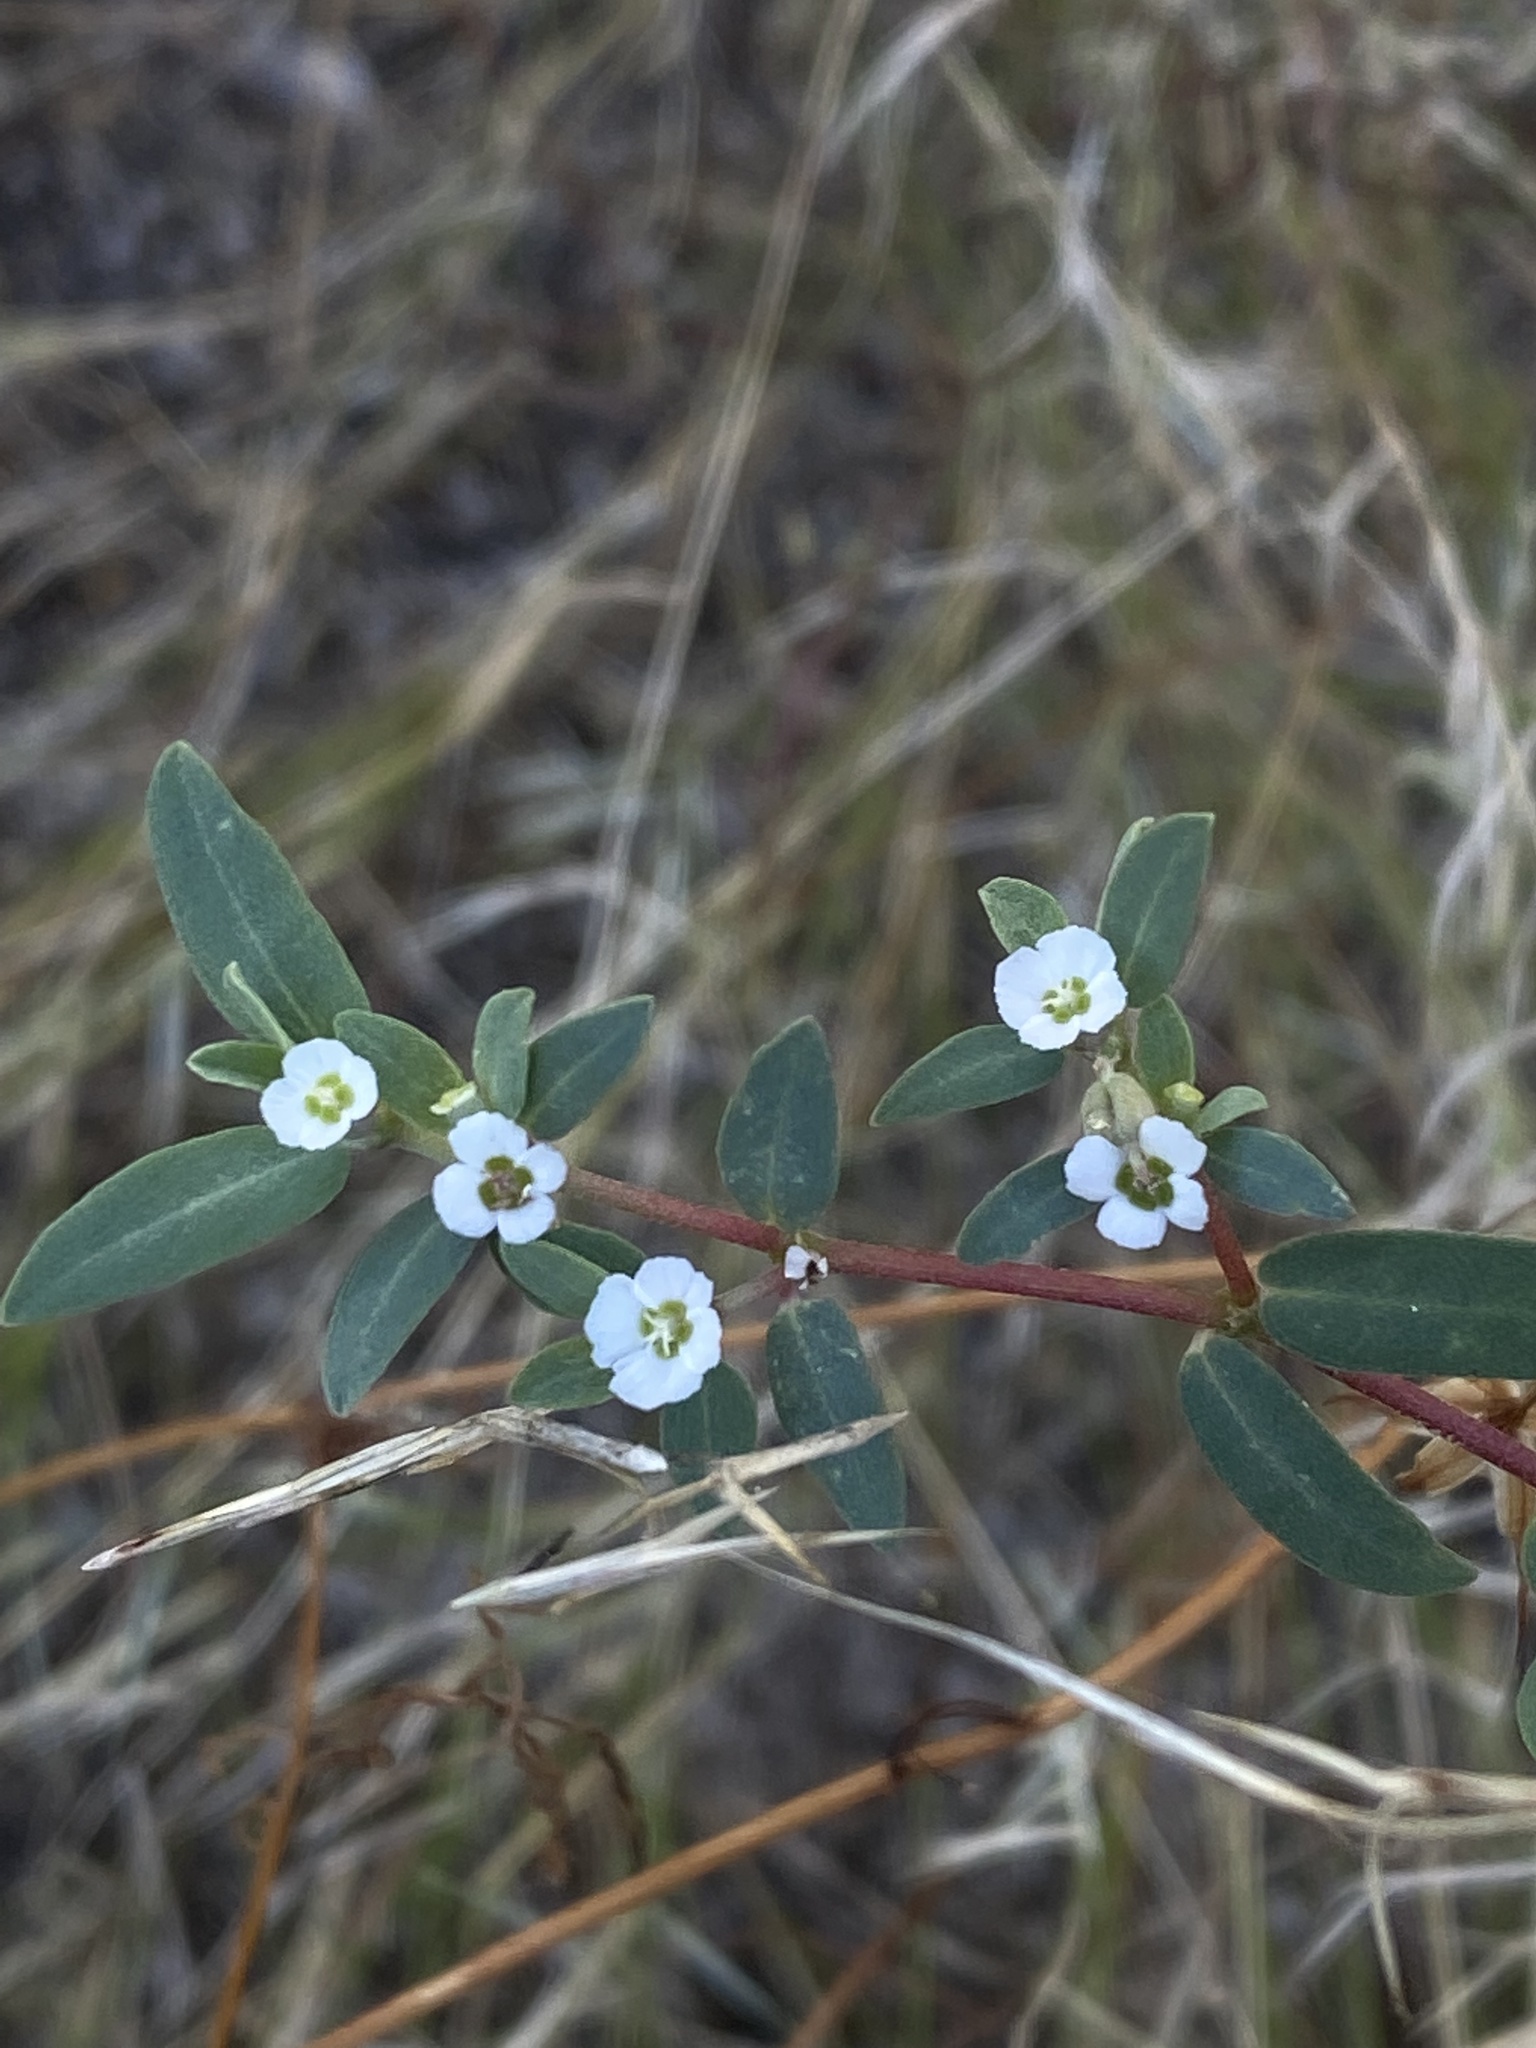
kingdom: Plantae
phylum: Tracheophyta
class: Magnoliopsida
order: Malpighiales
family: Euphorbiaceae
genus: Euphorbia
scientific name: Euphorbia pediculifera
